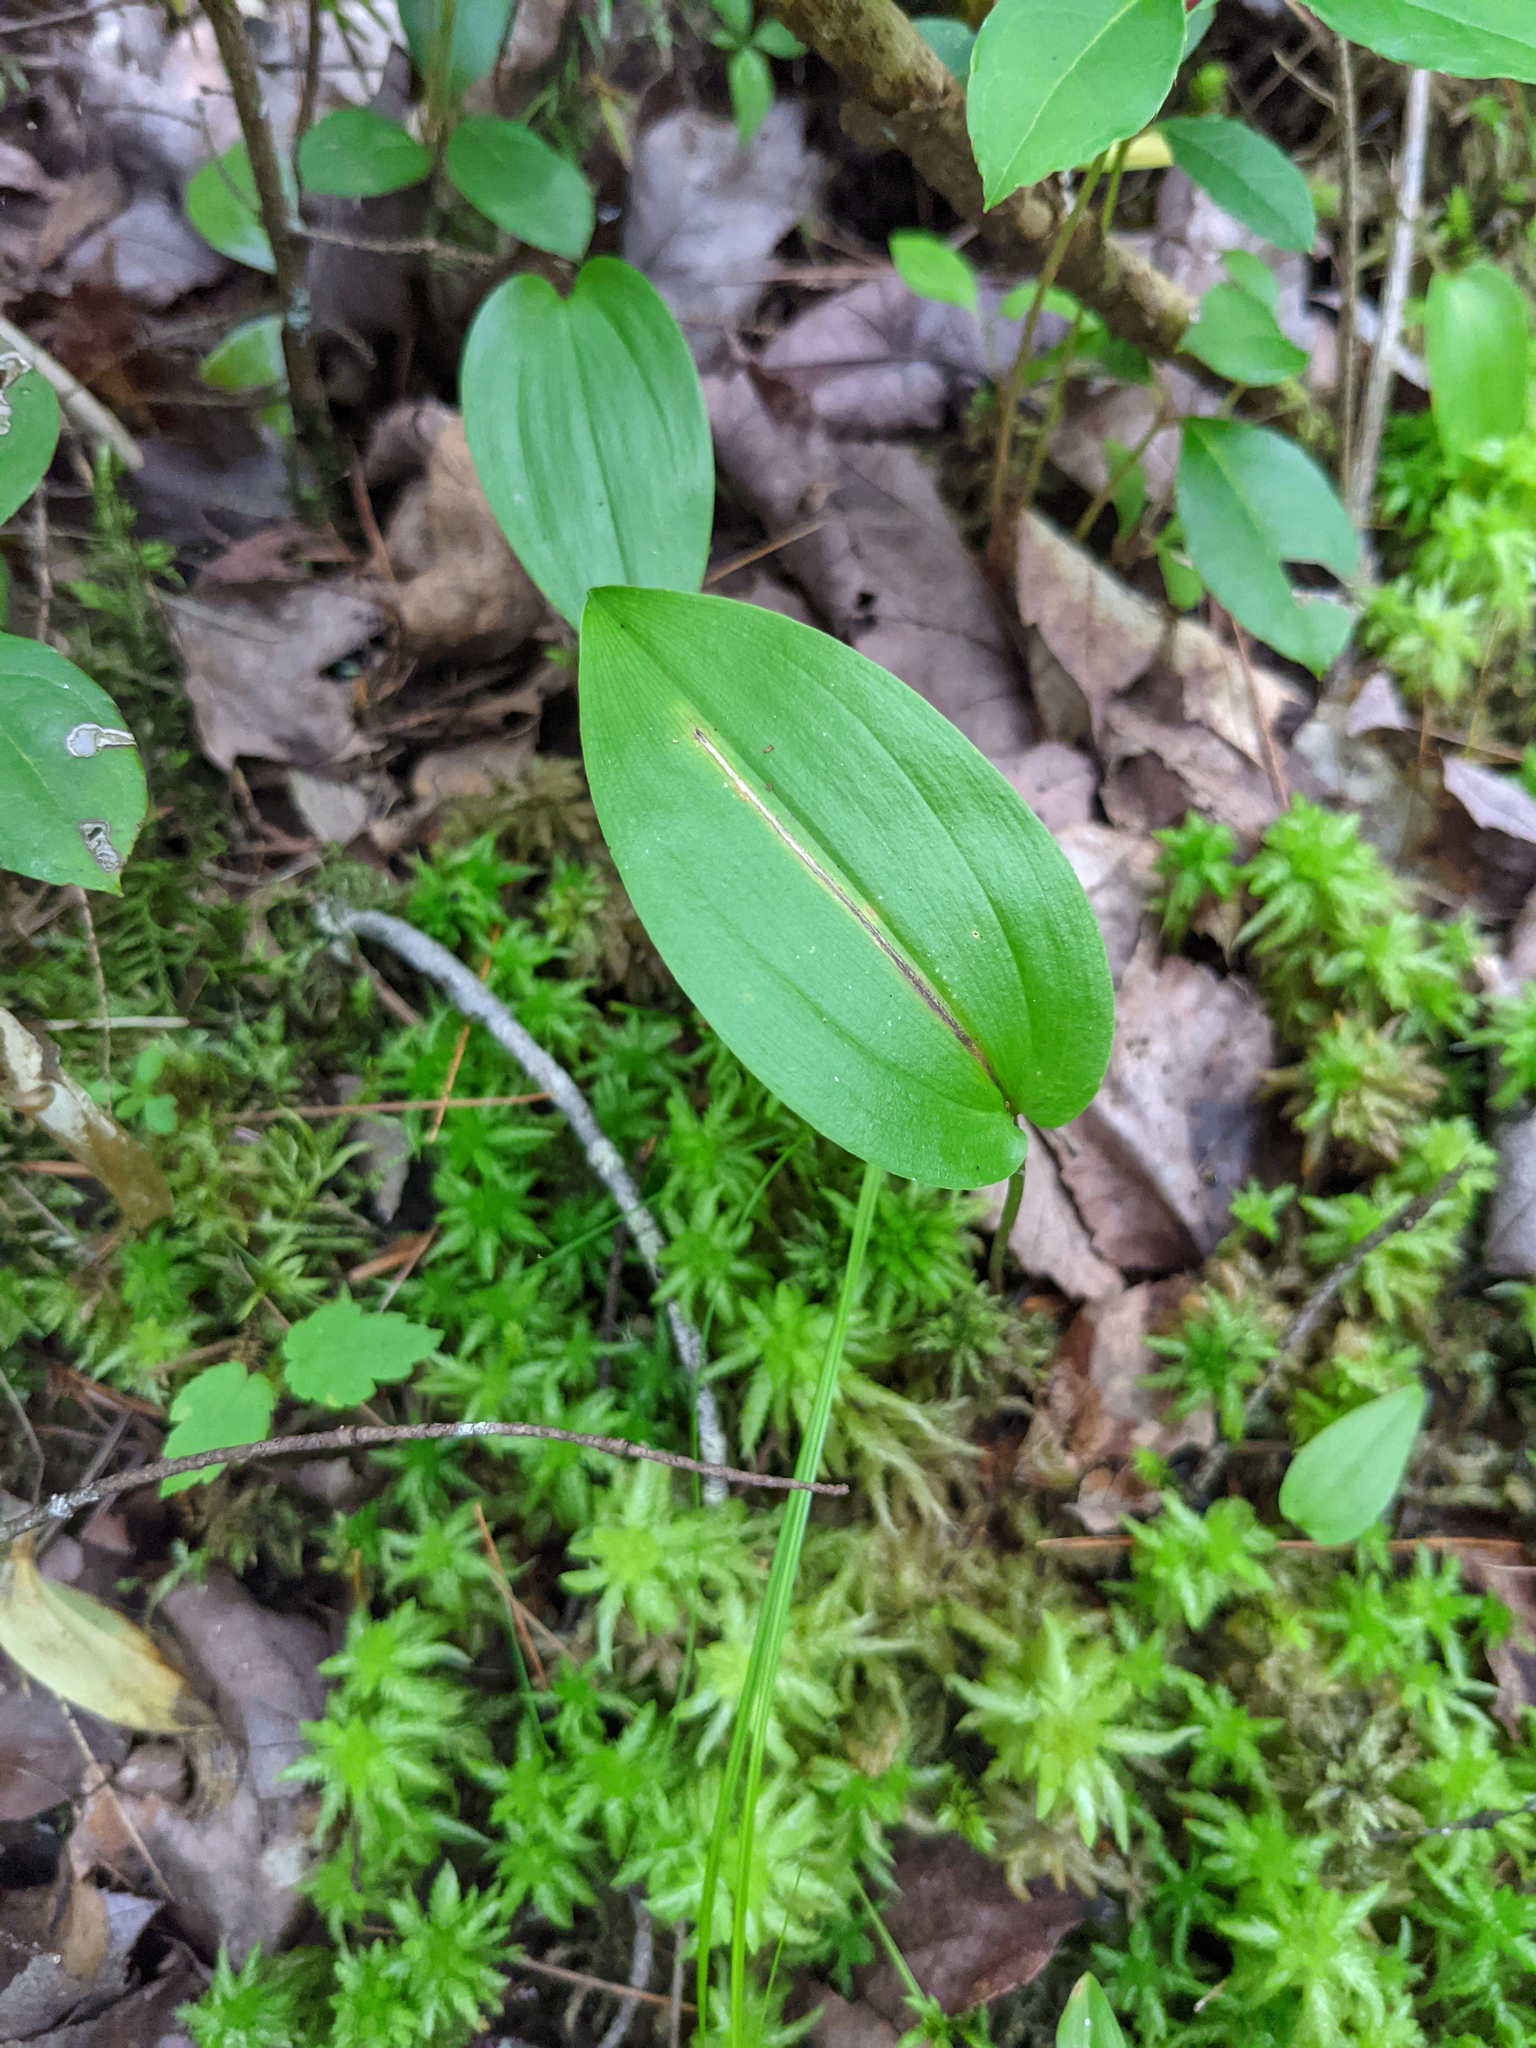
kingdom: Plantae
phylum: Tracheophyta
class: Liliopsida
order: Asparagales
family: Asparagaceae
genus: Maianthemum
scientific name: Maianthemum canadense
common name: False lily-of-the-valley
